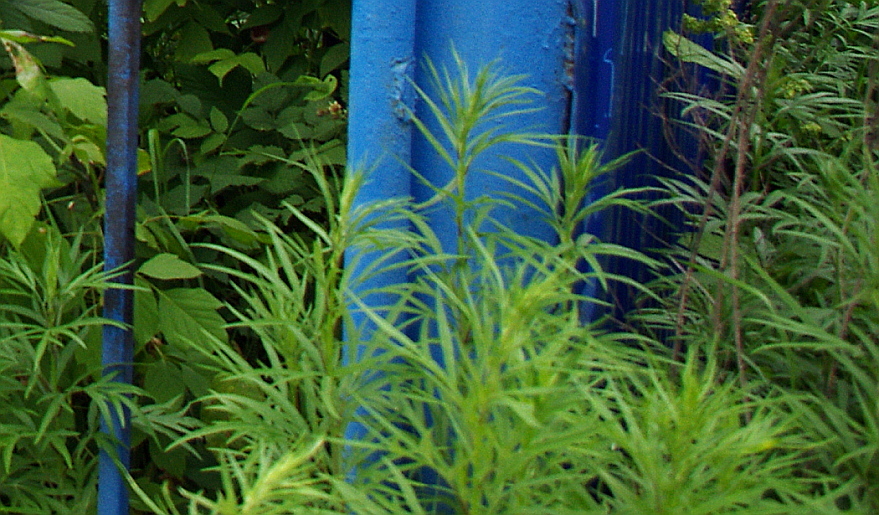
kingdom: Plantae
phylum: Tracheophyta
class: Magnoliopsida
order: Asterales
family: Asteraceae
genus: Artemisia
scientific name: Artemisia rubripes
